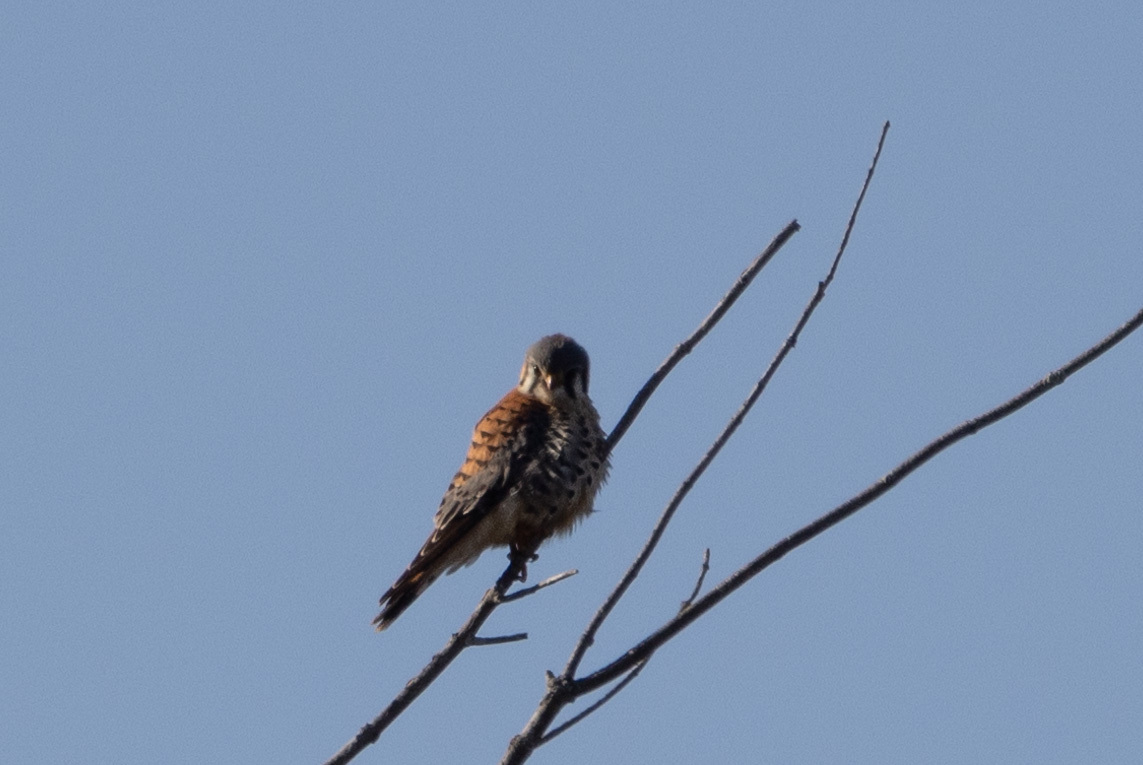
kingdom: Animalia
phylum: Chordata
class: Aves
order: Falconiformes
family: Falconidae
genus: Falco
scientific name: Falco sparverius
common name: American kestrel
